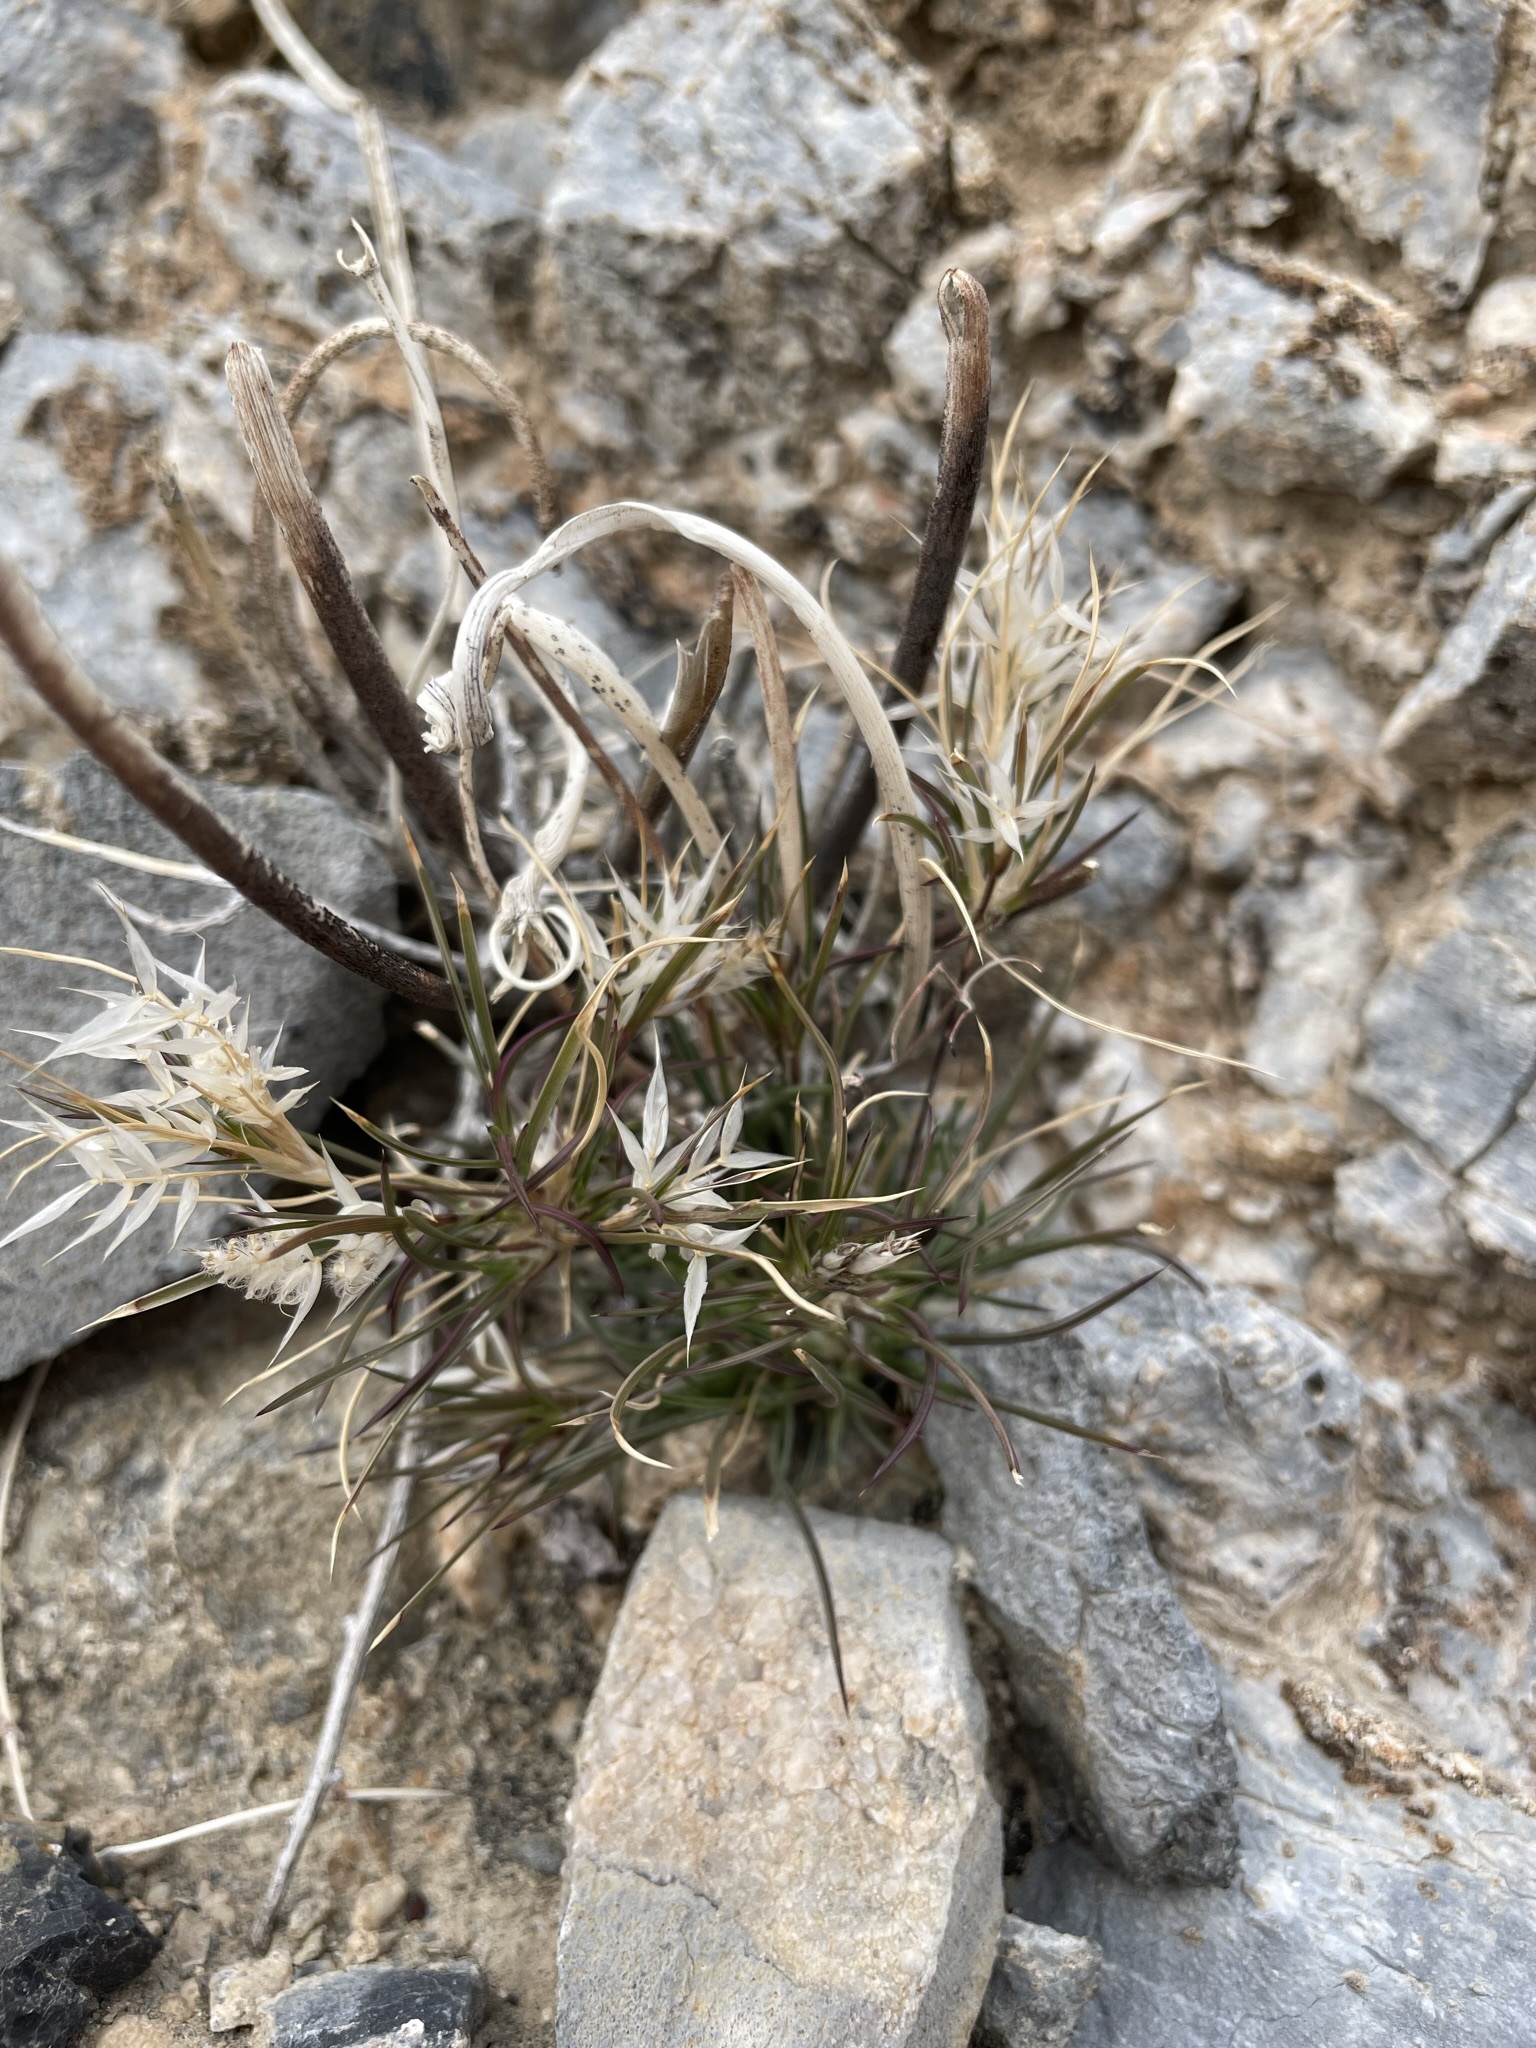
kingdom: Plantae
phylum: Tracheophyta
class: Liliopsida
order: Poales
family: Poaceae
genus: Dasyochloa
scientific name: Dasyochloa pulchella
